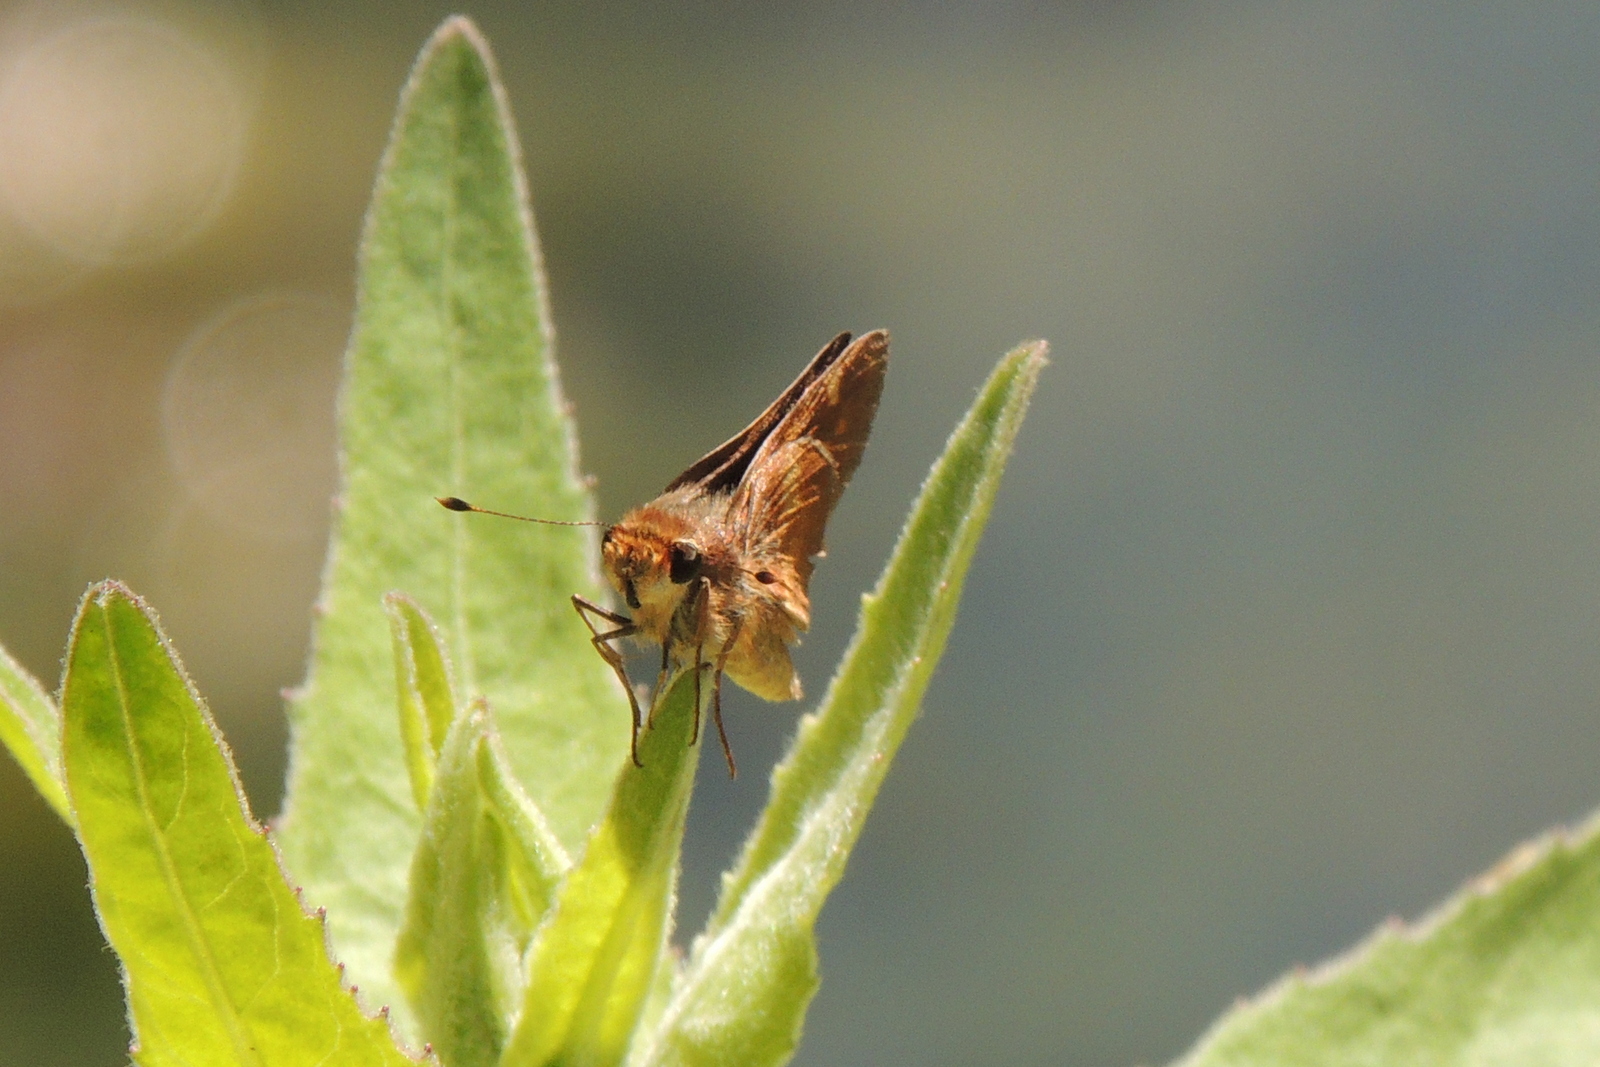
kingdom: Animalia
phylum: Arthropoda
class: Insecta
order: Lepidoptera
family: Hesperiidae
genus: Lon
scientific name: Lon melane
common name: Umber skipper
